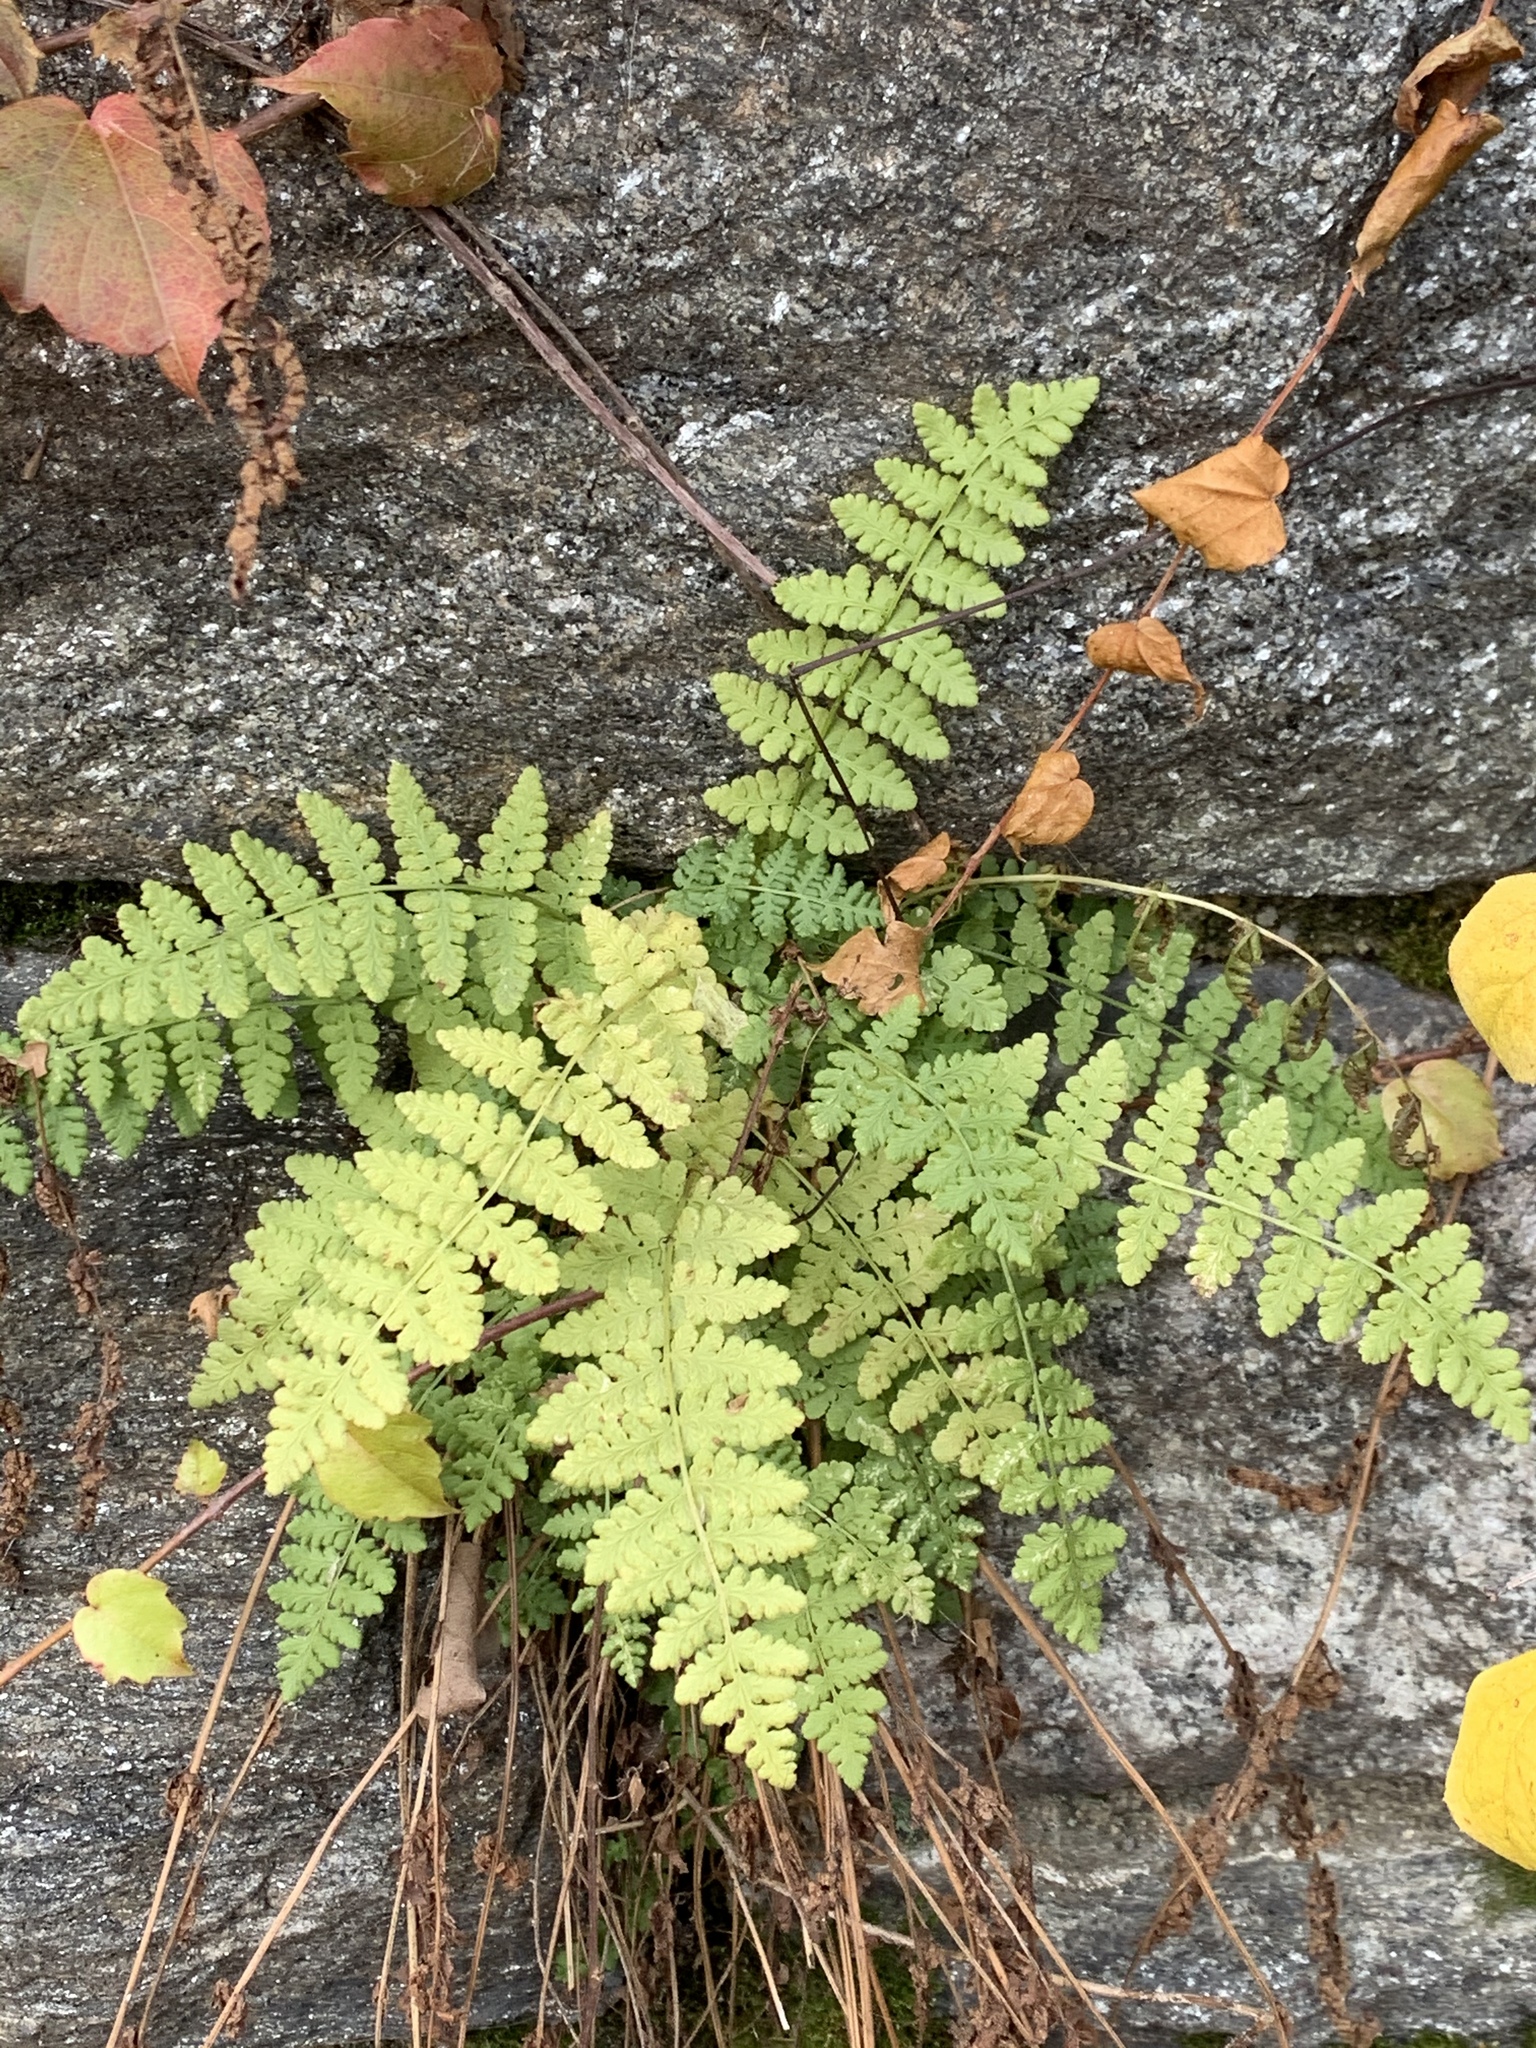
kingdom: Plantae
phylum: Tracheophyta
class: Polypodiopsida
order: Polypodiales
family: Woodsiaceae
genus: Physematium
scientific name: Physematium obtusum
